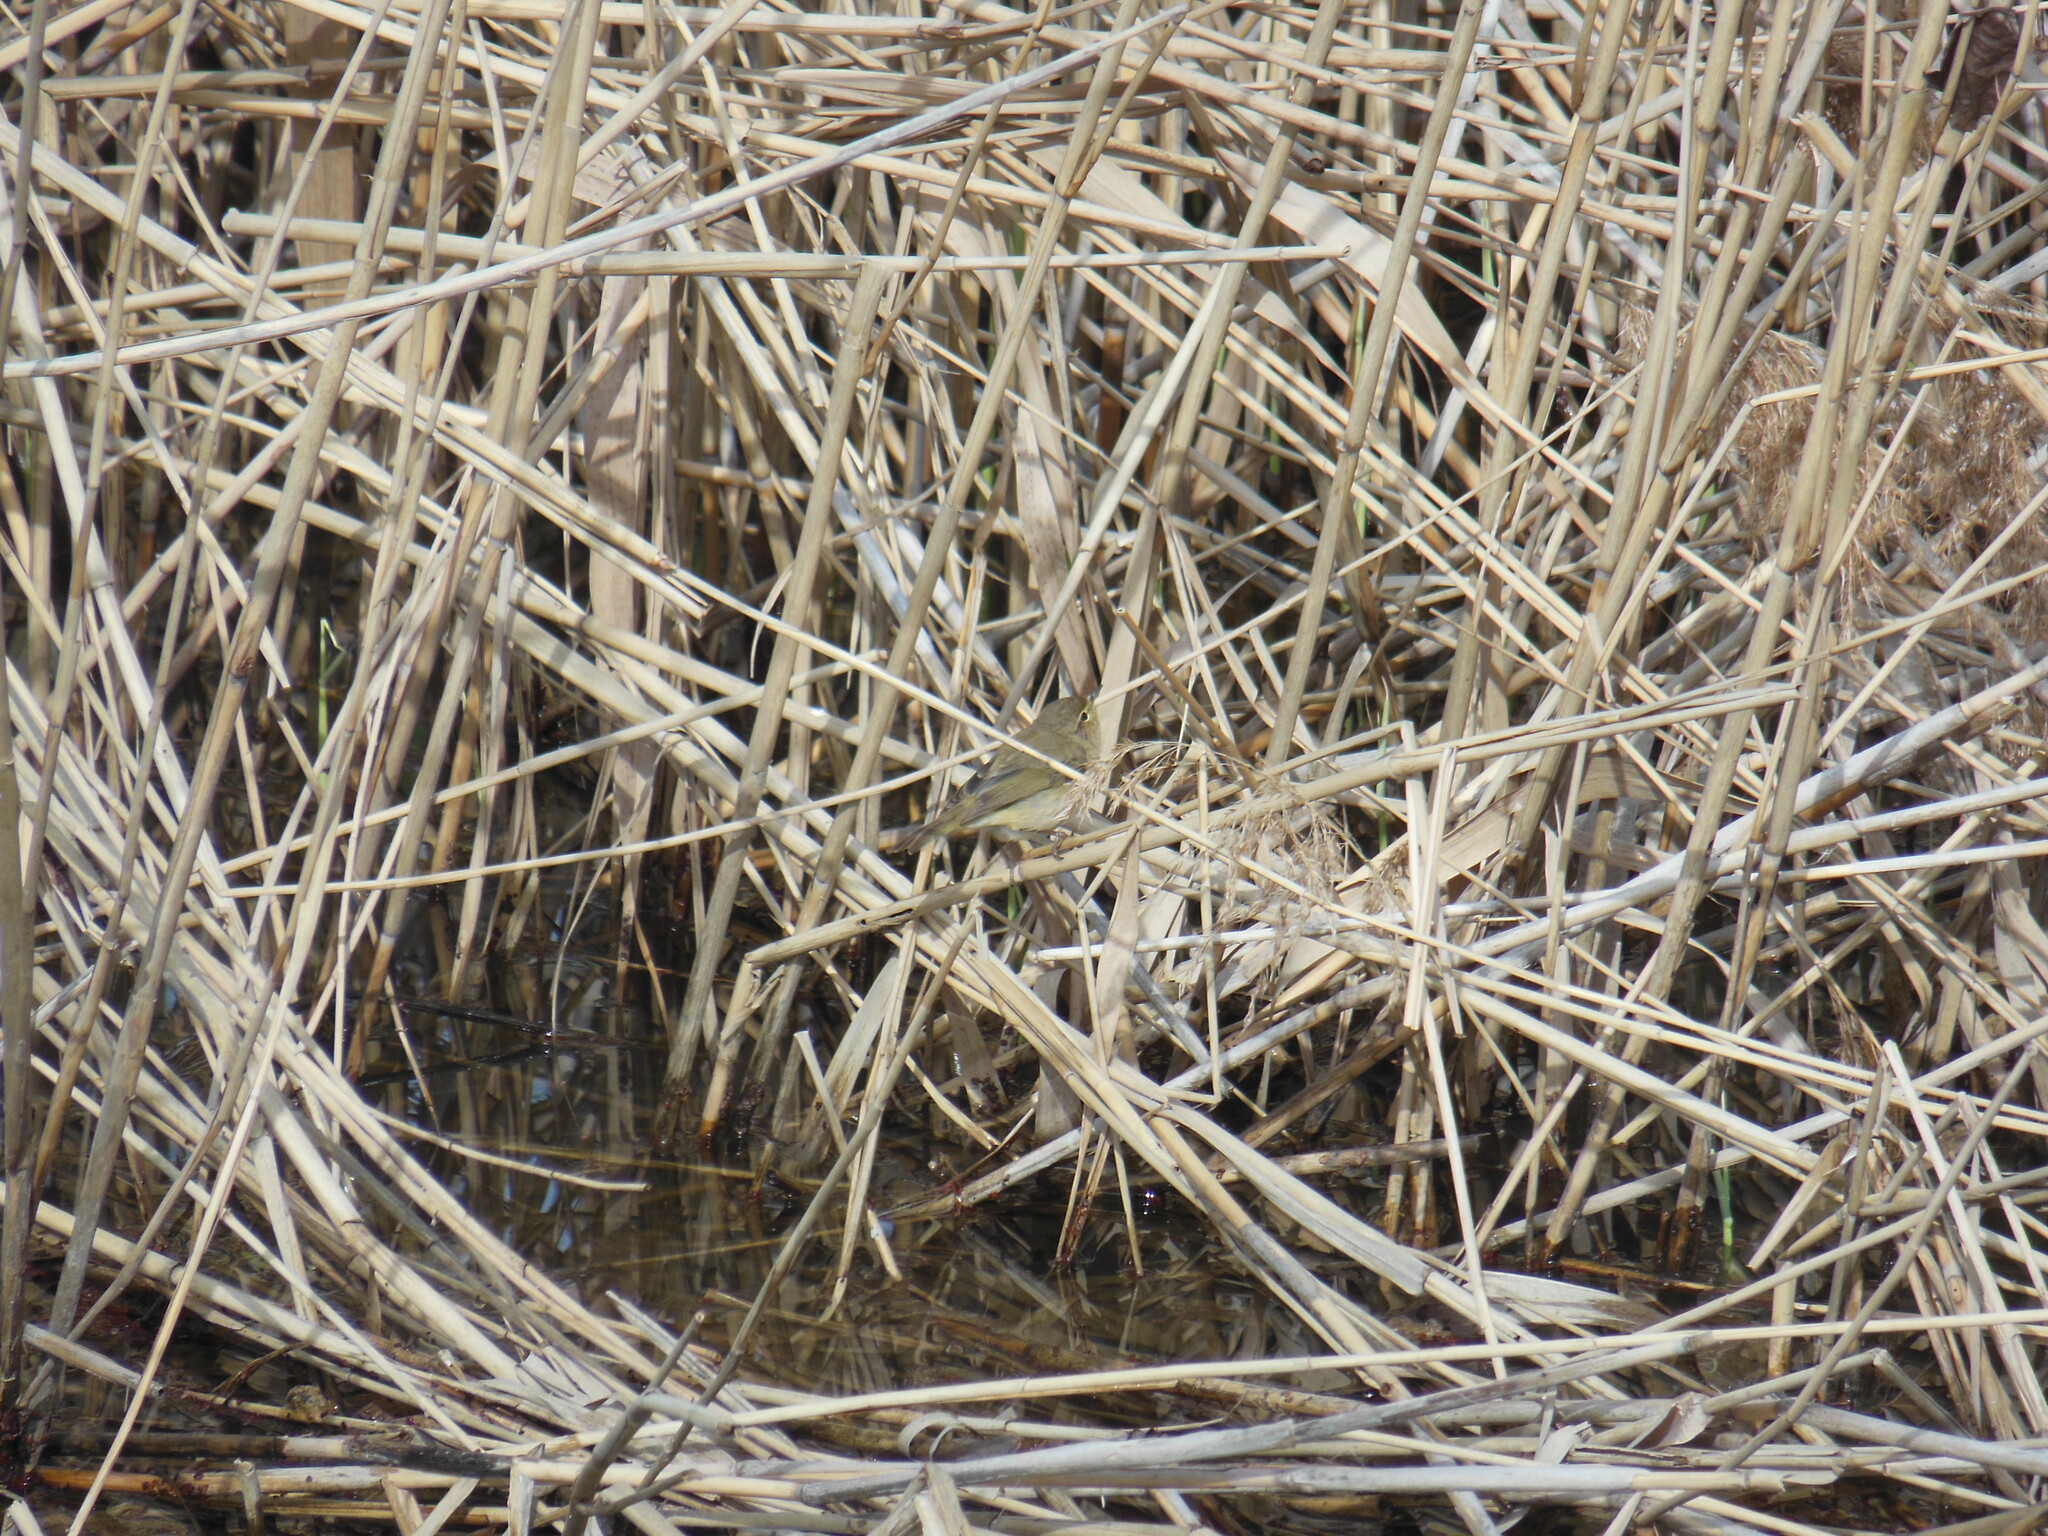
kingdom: Animalia
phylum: Chordata
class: Aves
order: Passeriformes
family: Phylloscopidae
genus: Phylloscopus
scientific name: Phylloscopus collybita
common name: Common chiffchaff
